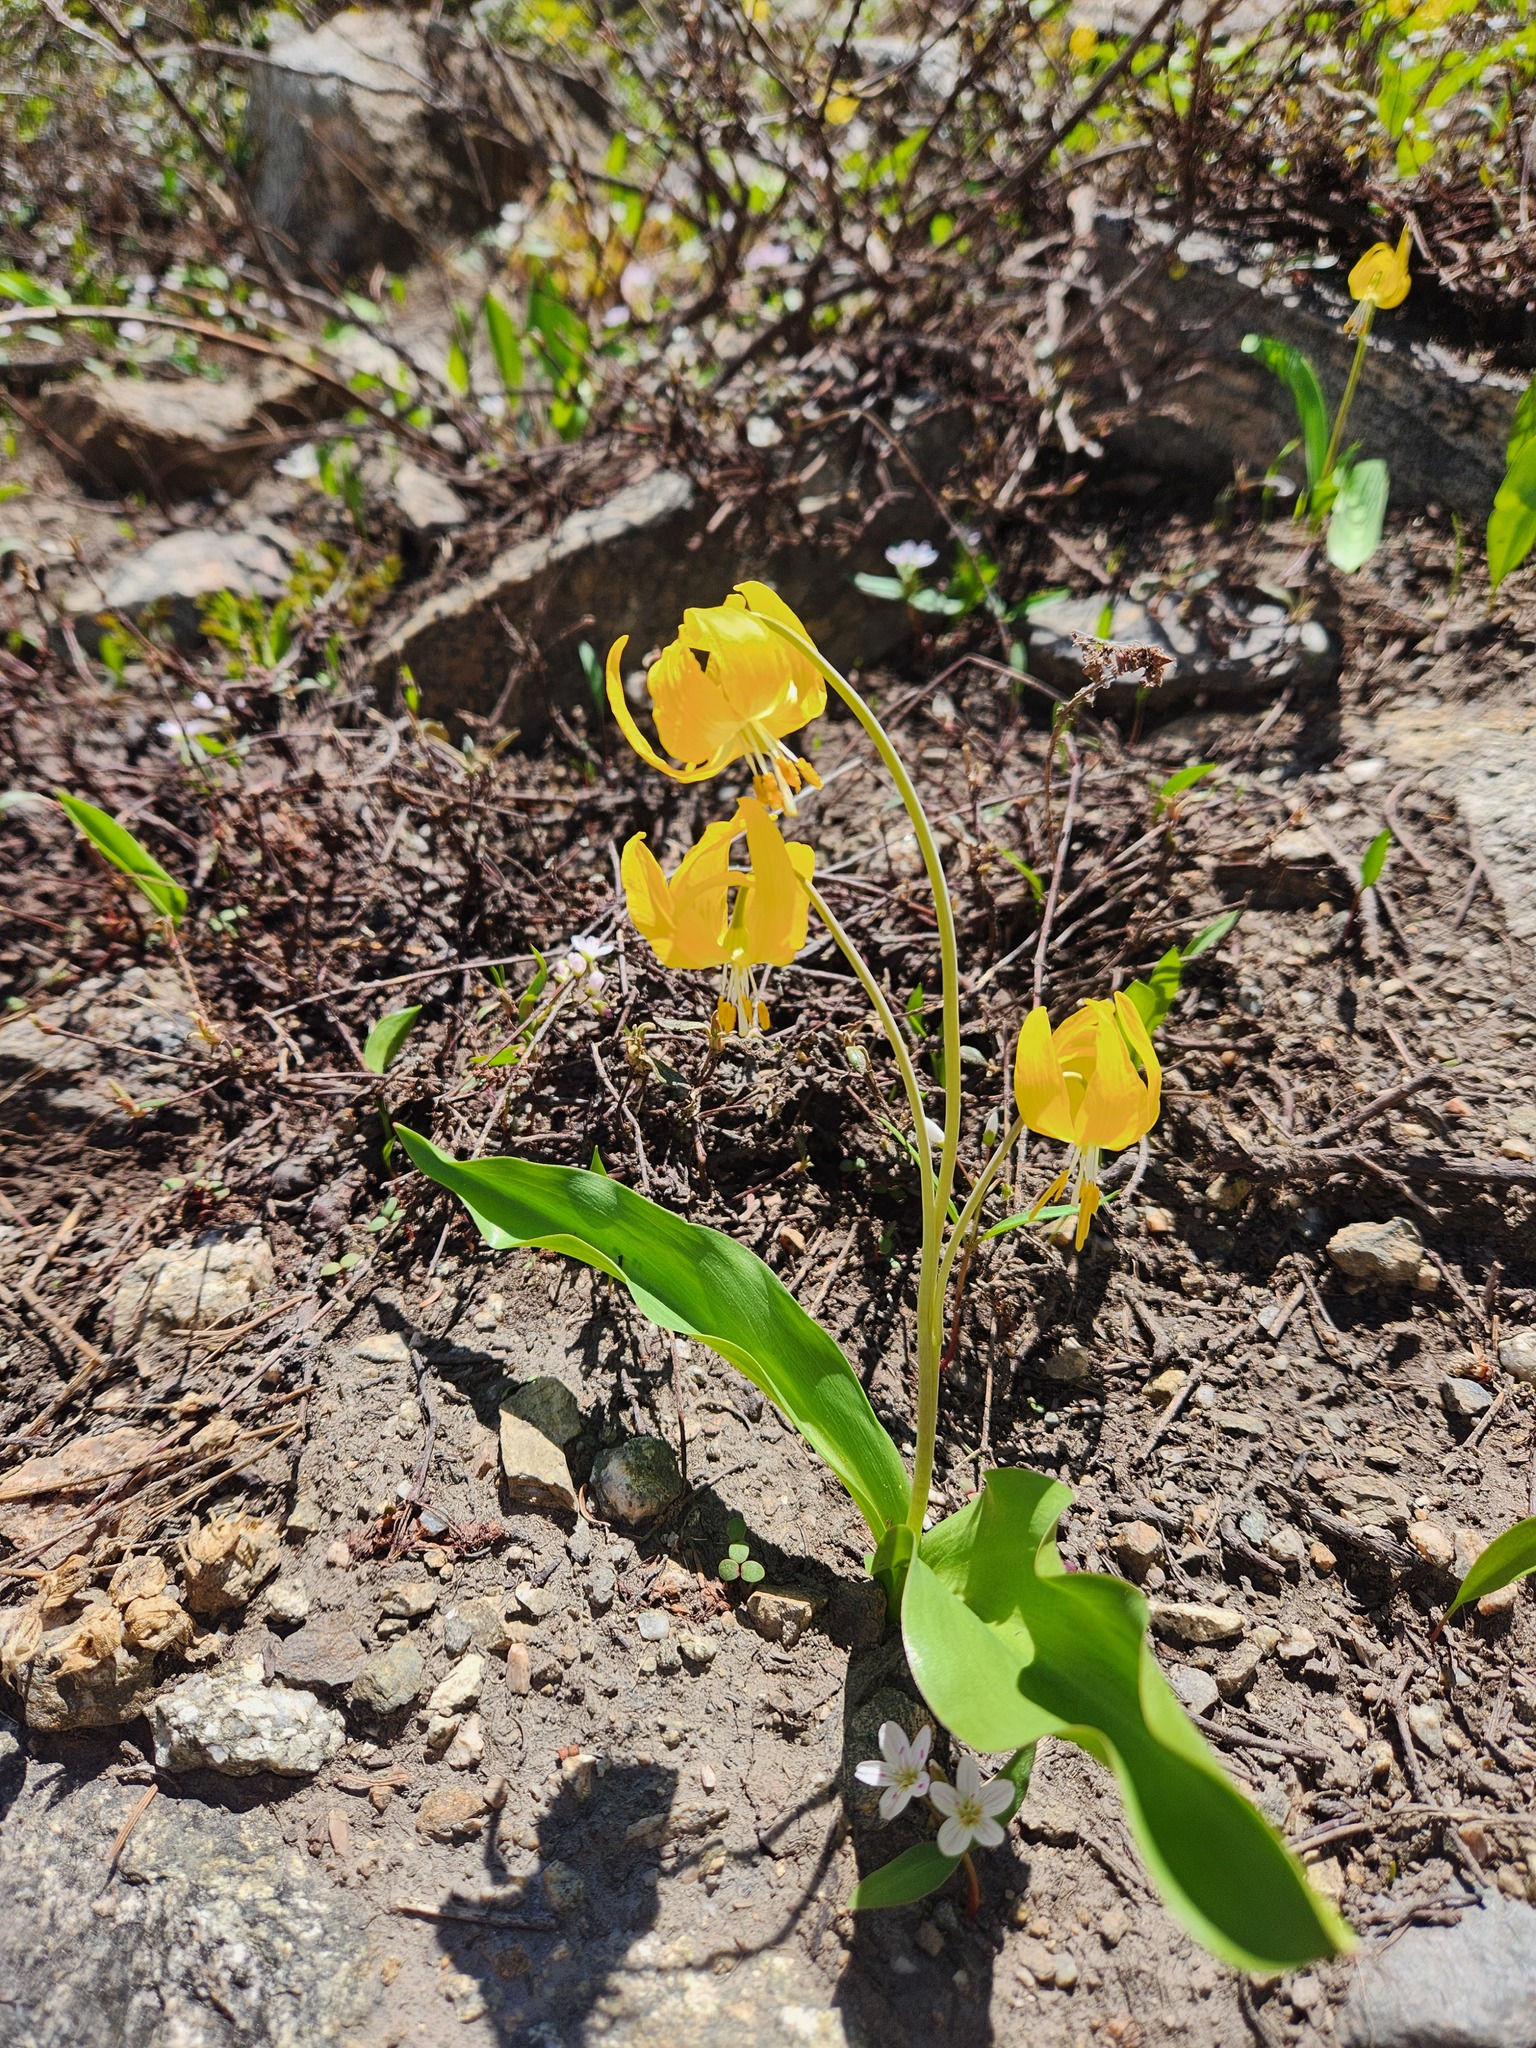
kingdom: Plantae
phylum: Tracheophyta
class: Liliopsida
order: Liliales
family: Liliaceae
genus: Erythronium
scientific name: Erythronium grandiflorum
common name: Avalanche-lily
